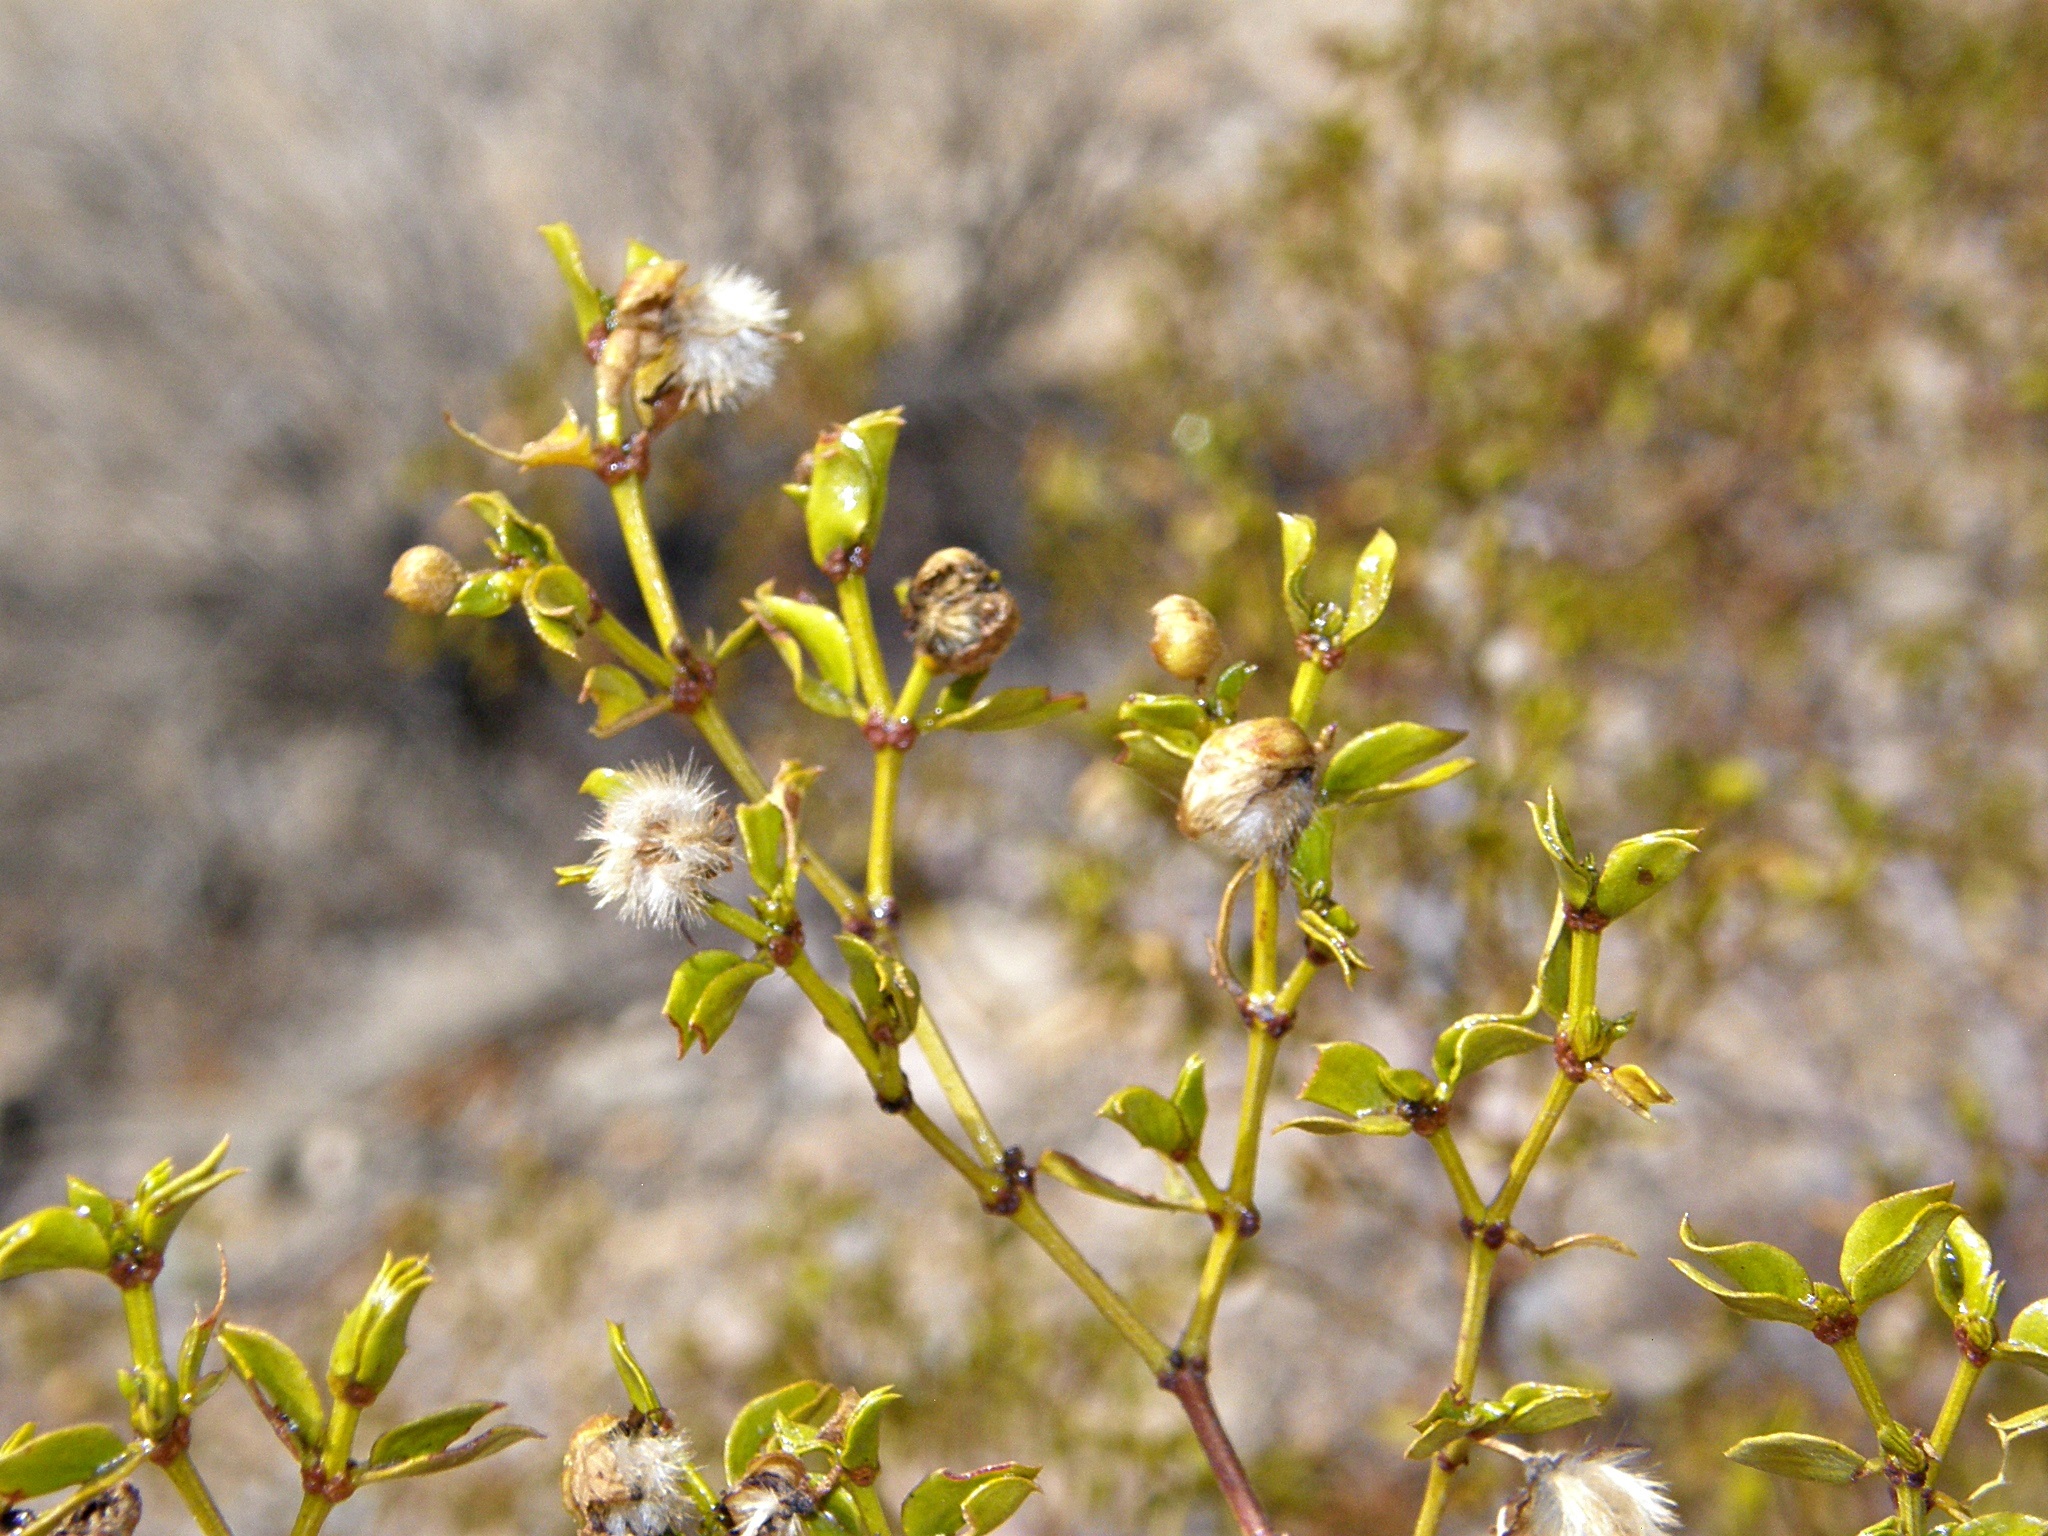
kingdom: Plantae
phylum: Tracheophyta
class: Magnoliopsida
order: Zygophyllales
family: Zygophyllaceae
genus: Larrea
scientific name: Larrea tridentata
